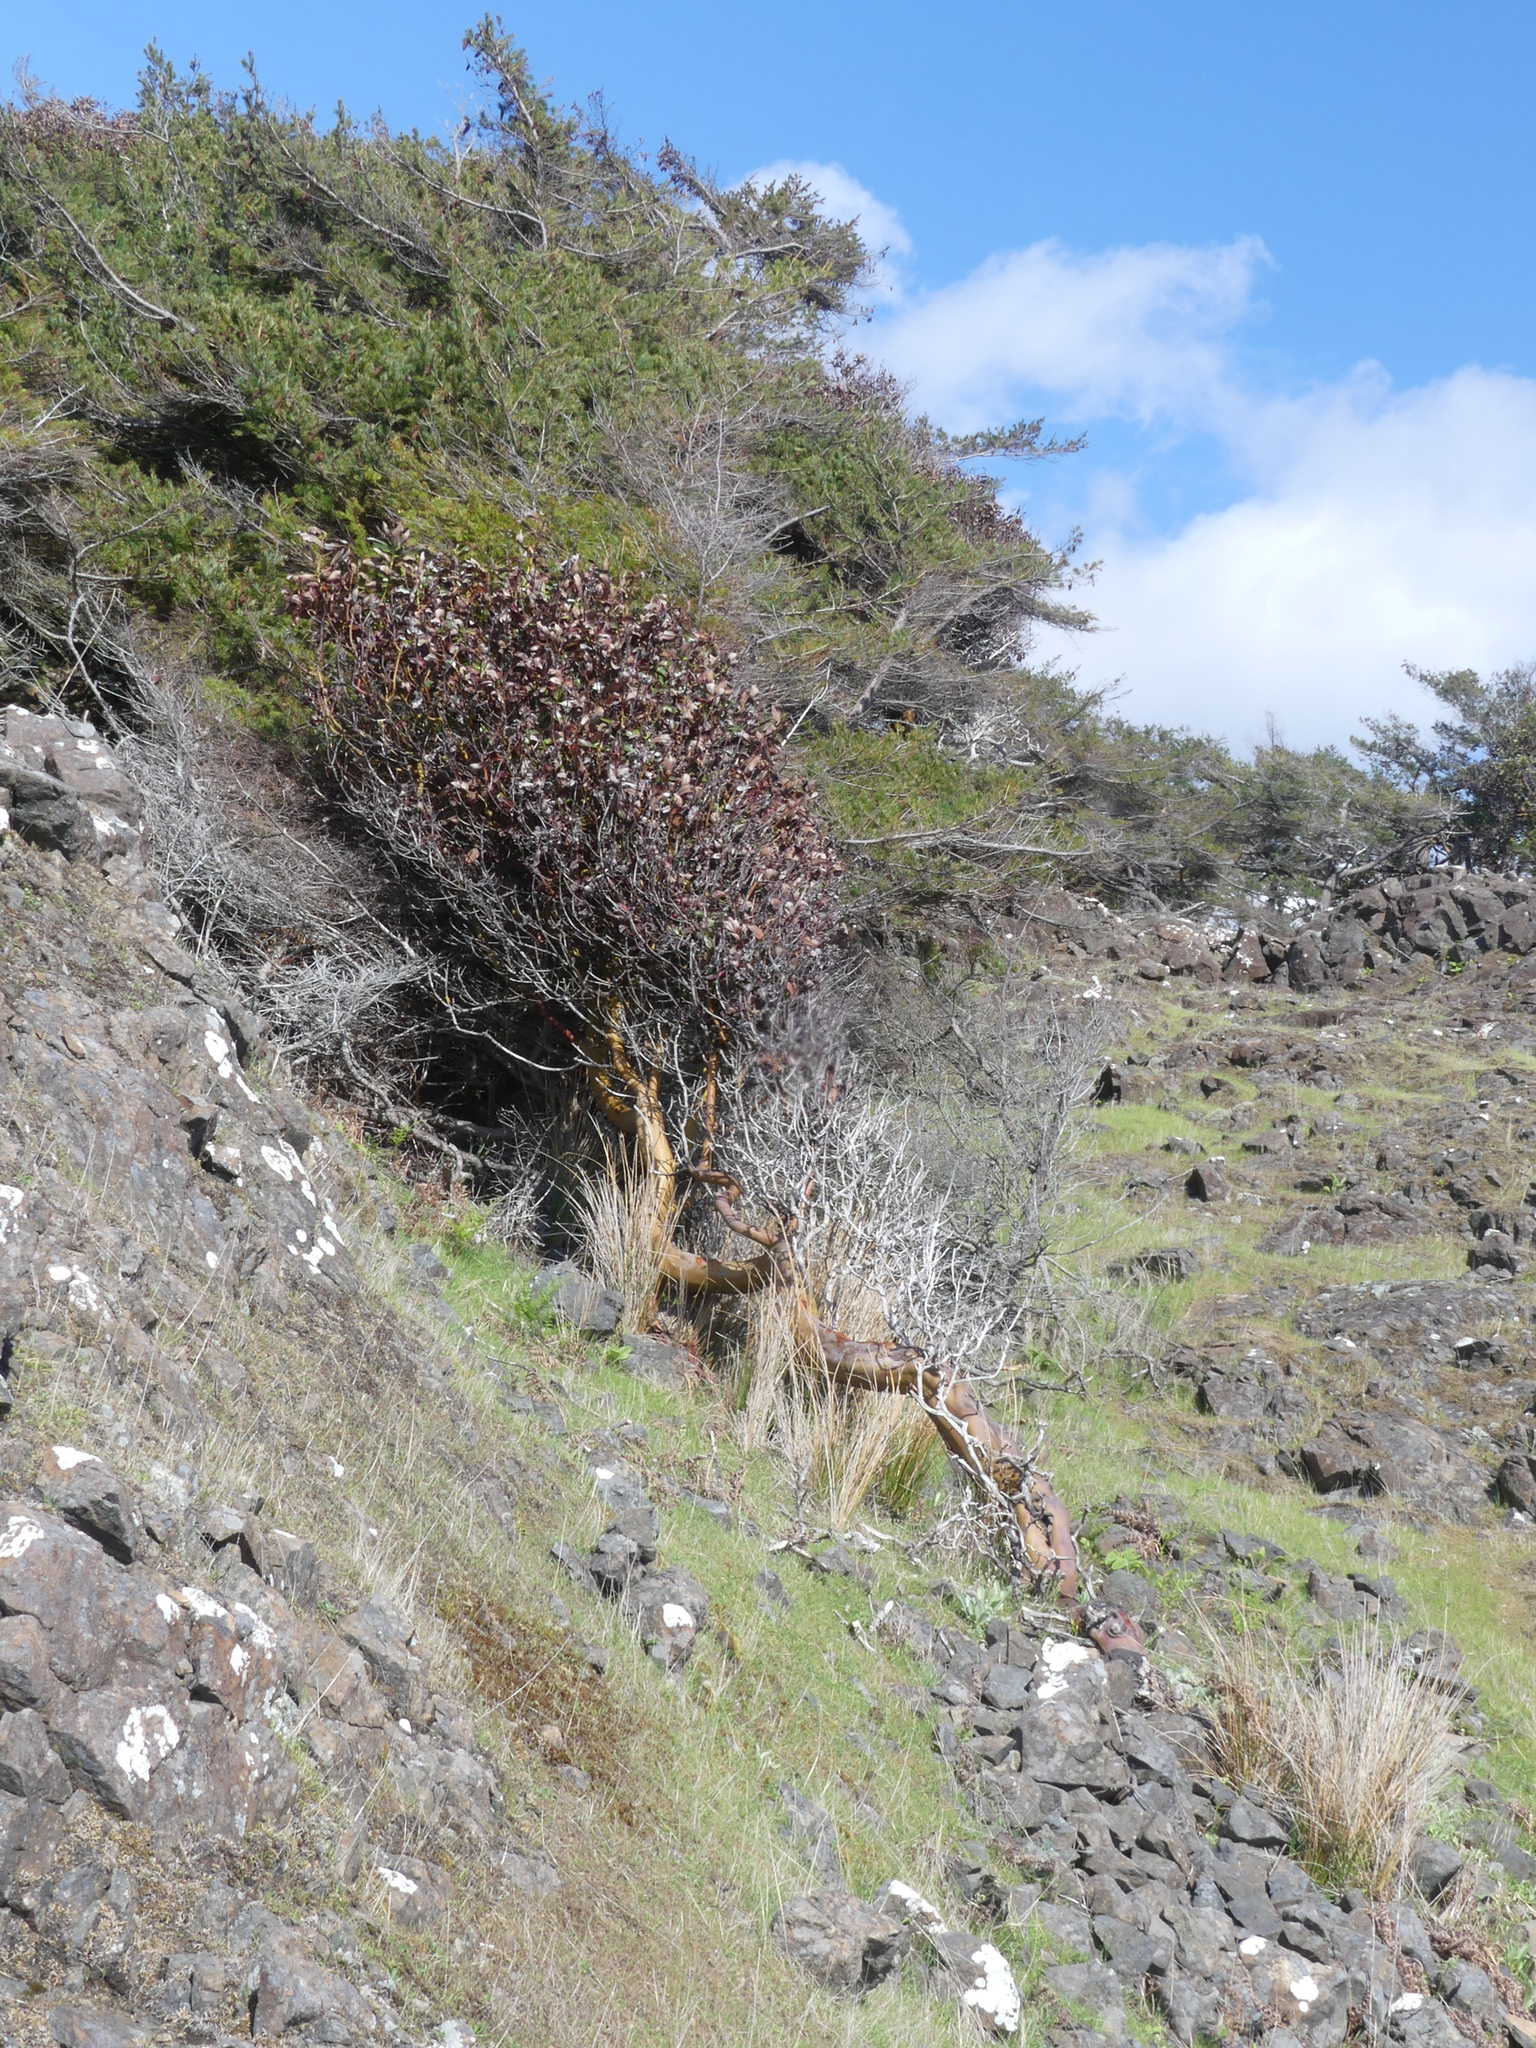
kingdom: Plantae
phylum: Tracheophyta
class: Magnoliopsida
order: Ericales
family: Ericaceae
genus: Arbutus
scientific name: Arbutus menziesii
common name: Pacific madrone
